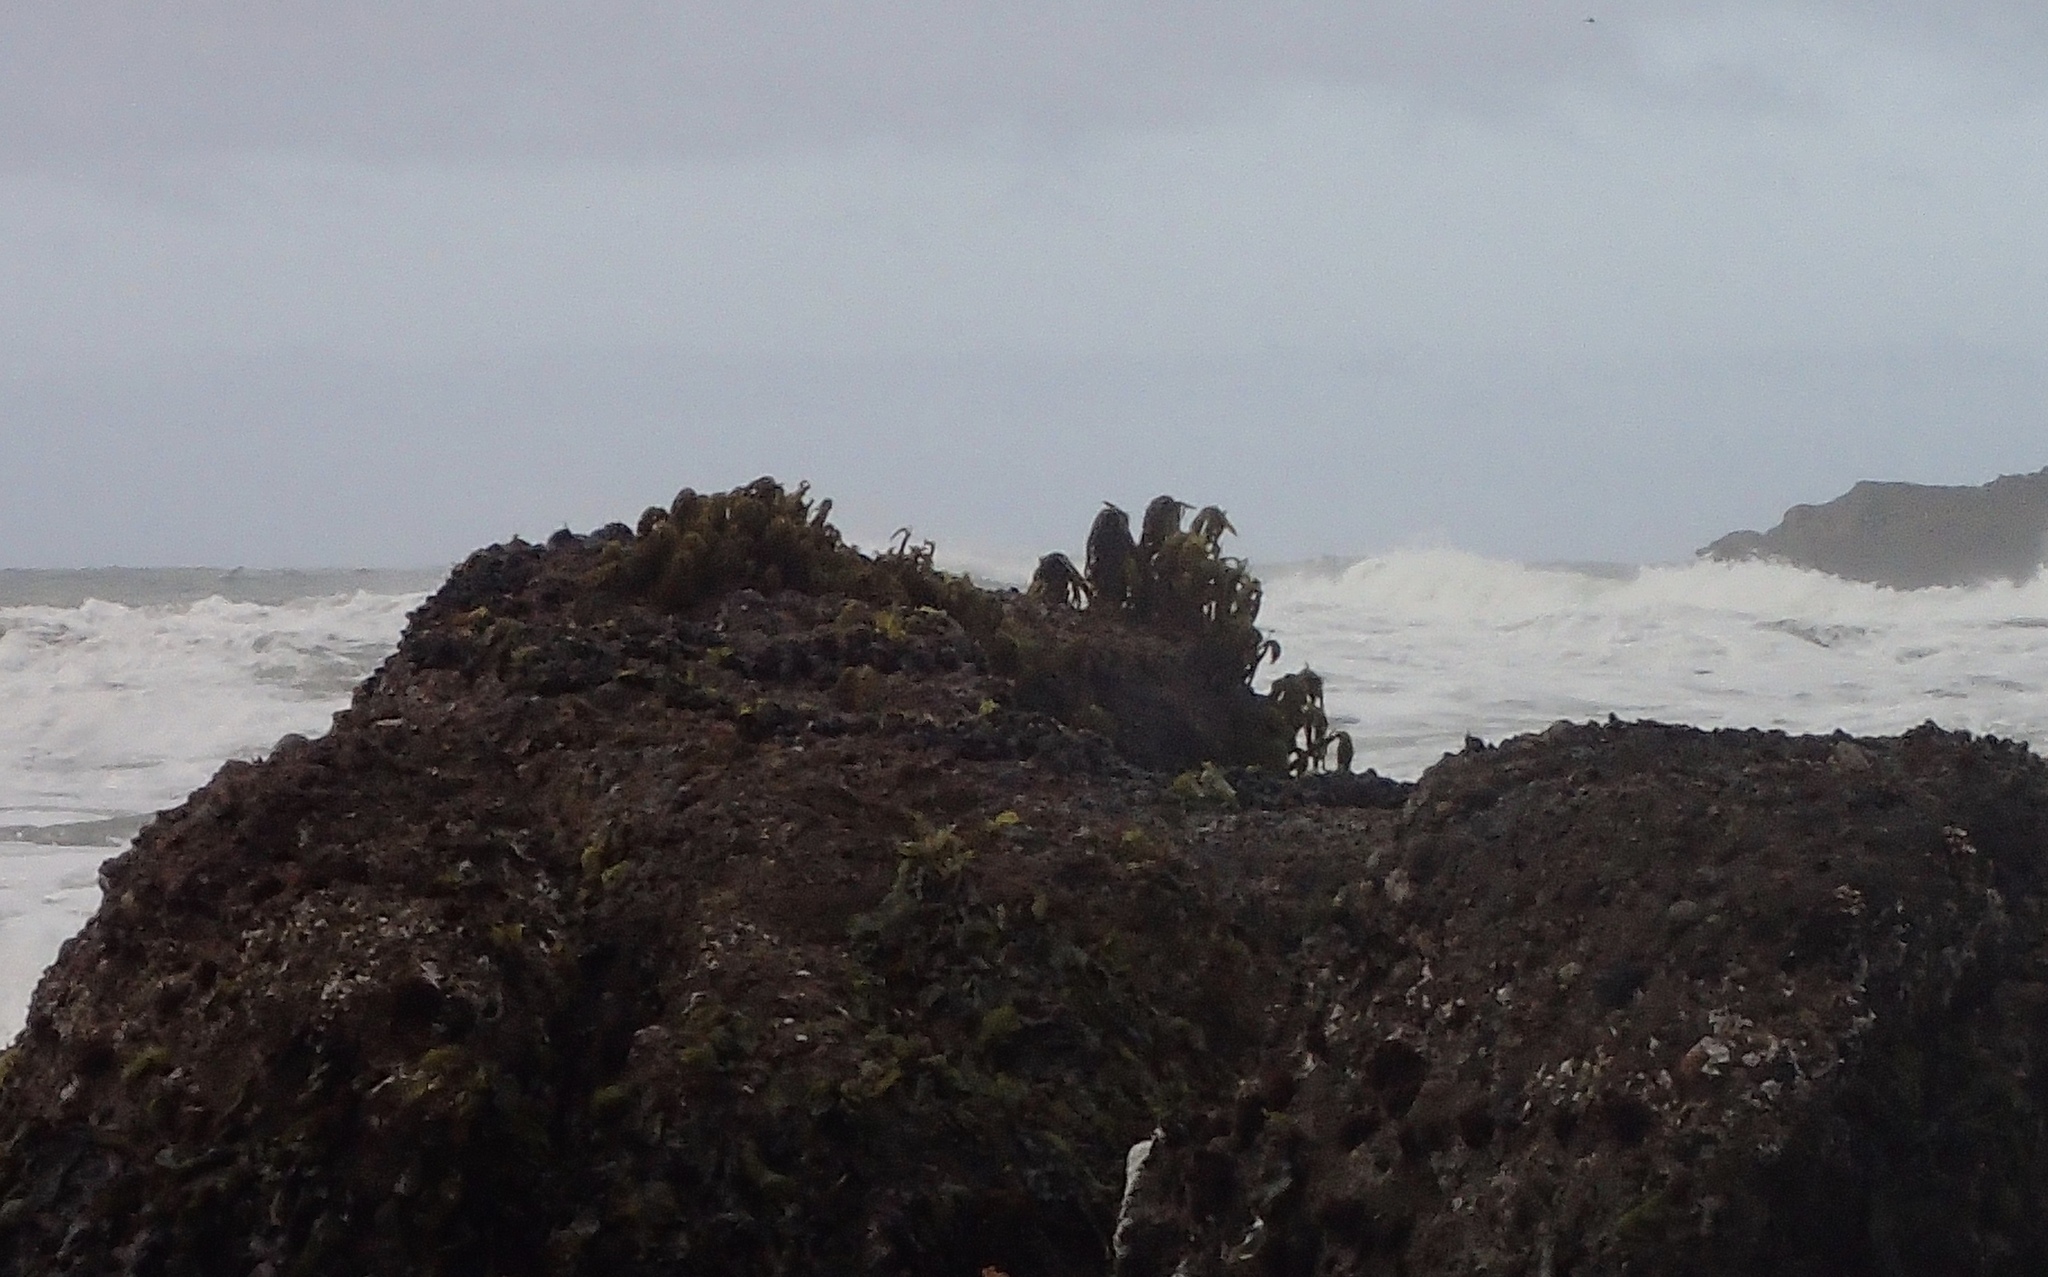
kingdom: Chromista
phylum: Ochrophyta
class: Phaeophyceae
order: Laminariales
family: Laminariaceae
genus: Postelsia
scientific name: Postelsia palmiformis
